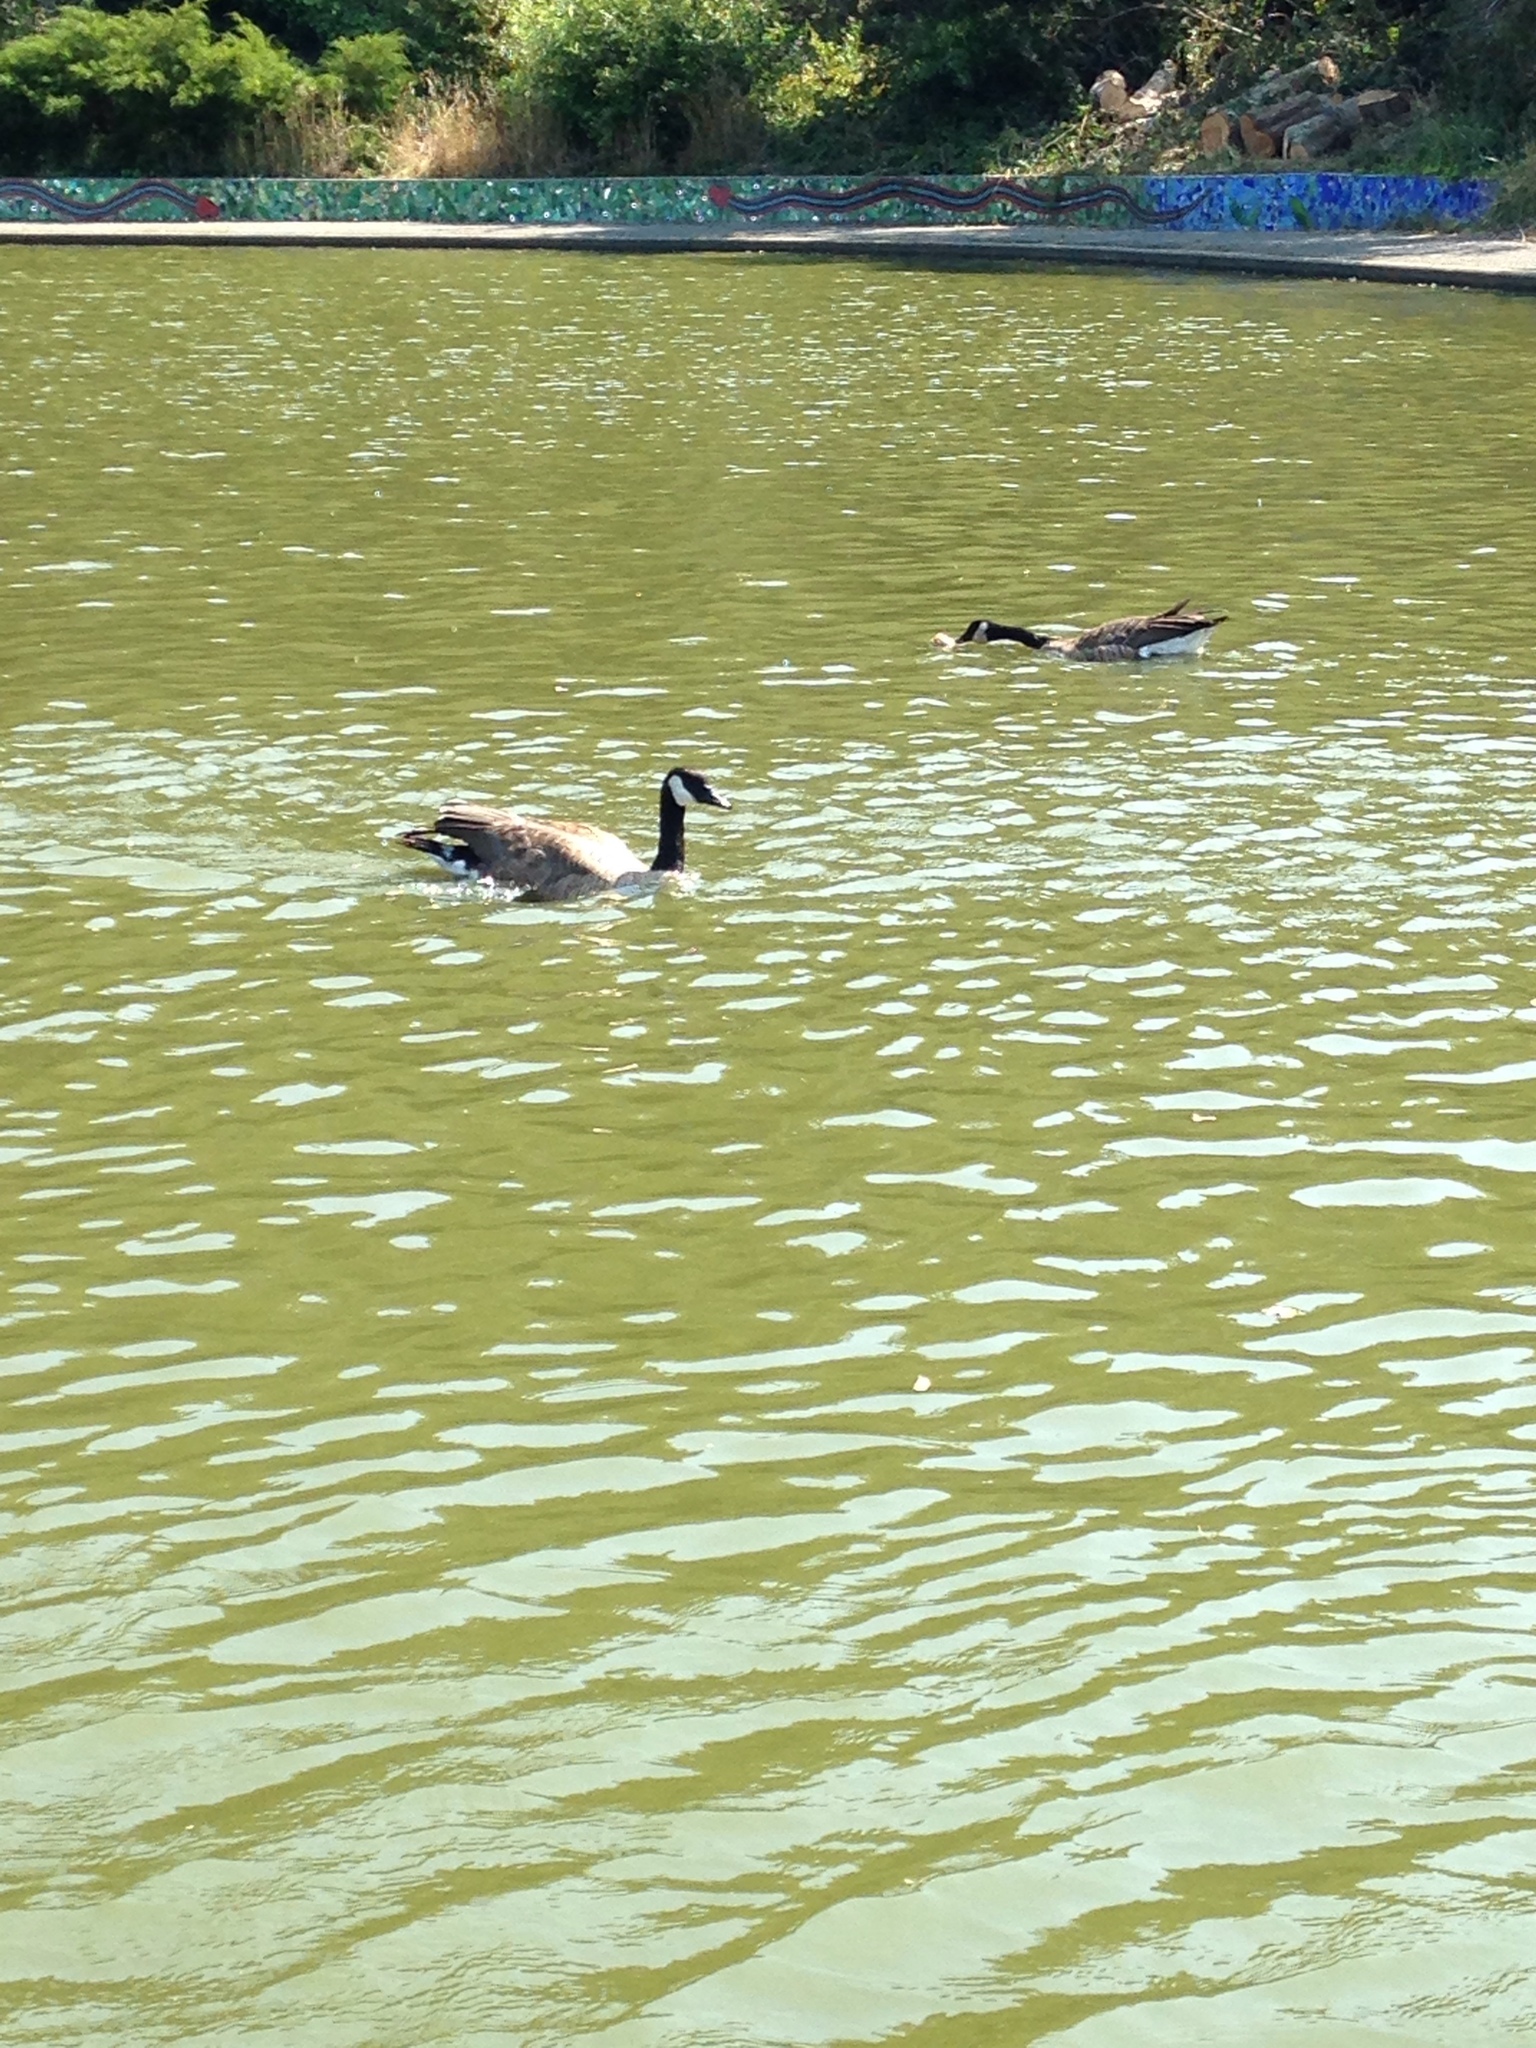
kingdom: Animalia
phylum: Chordata
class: Aves
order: Anseriformes
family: Anatidae
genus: Branta
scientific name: Branta canadensis
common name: Canada goose
